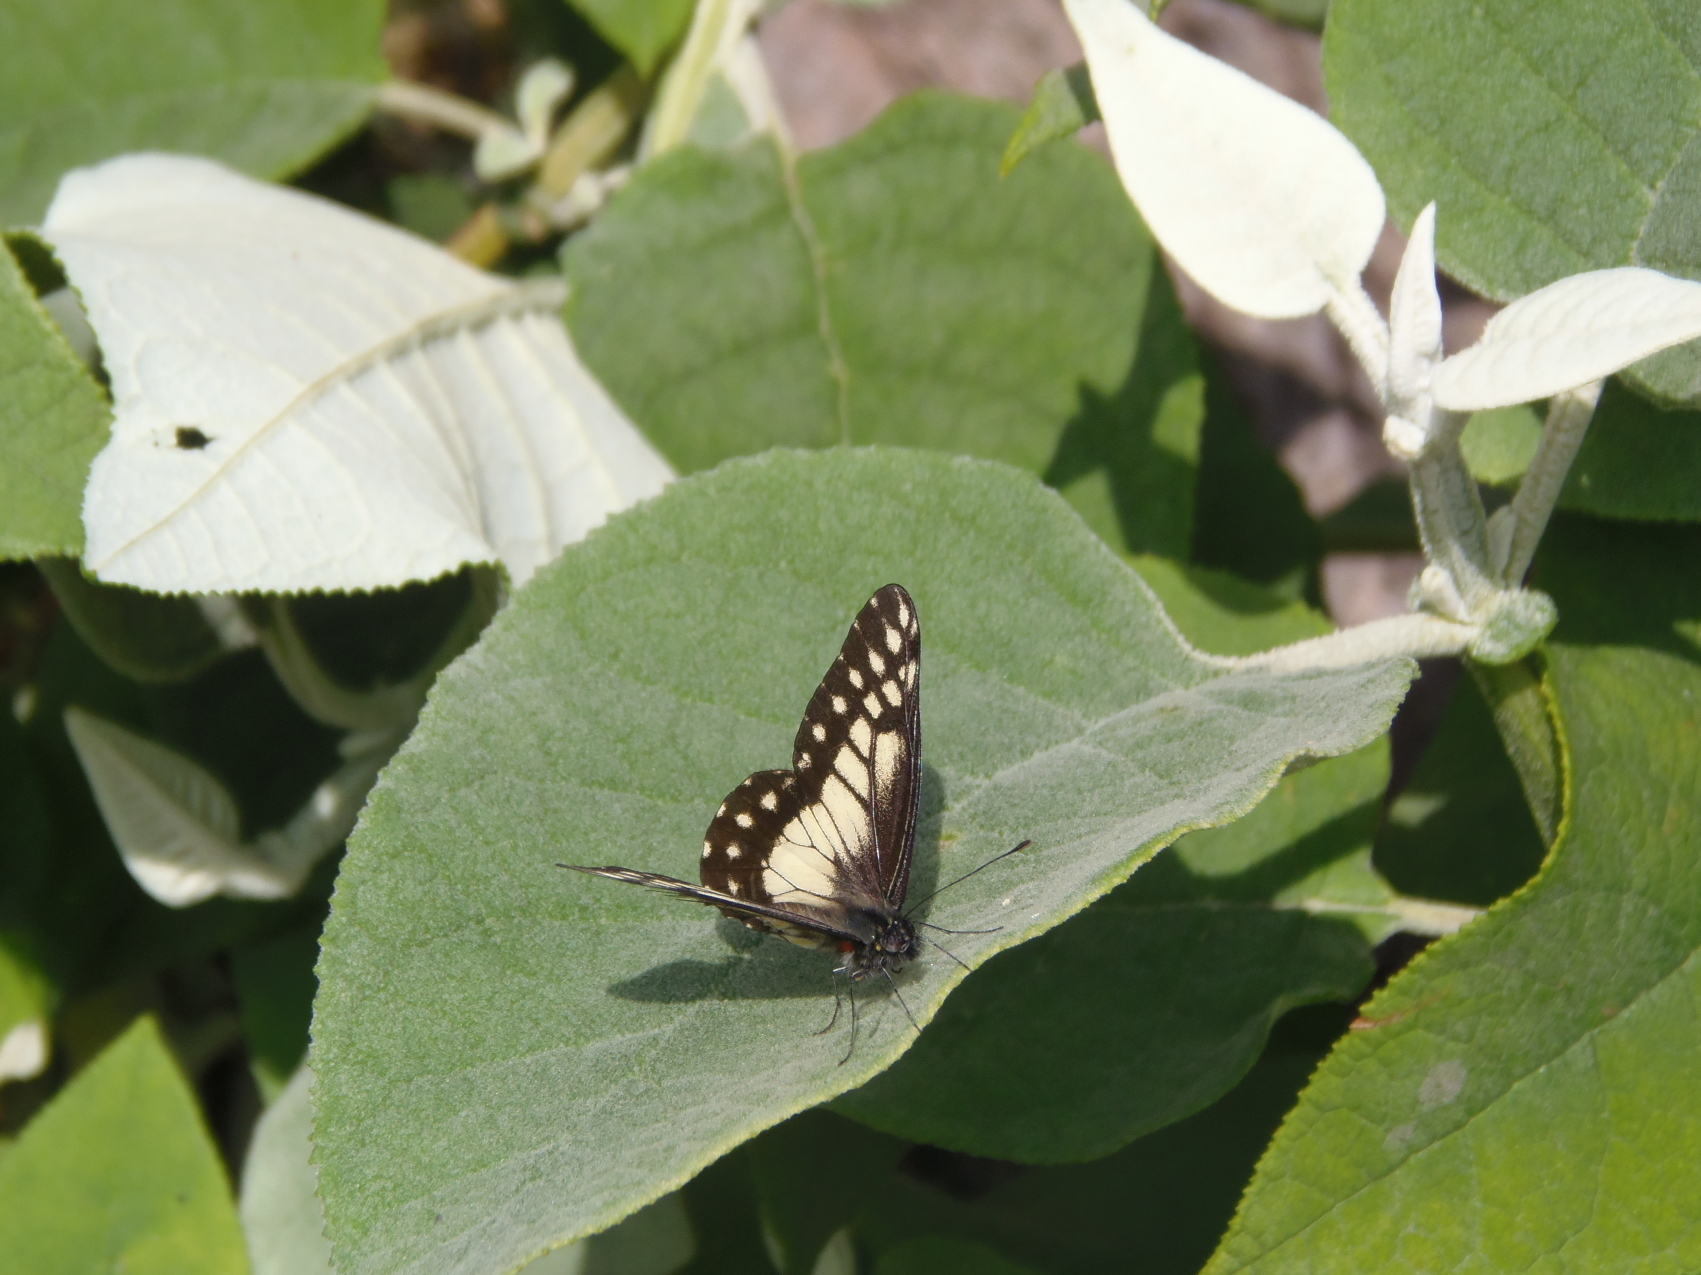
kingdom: Animalia
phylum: Arthropoda
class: Insecta
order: Lepidoptera
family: Pieridae
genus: Archonias
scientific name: Archonias nimbice
